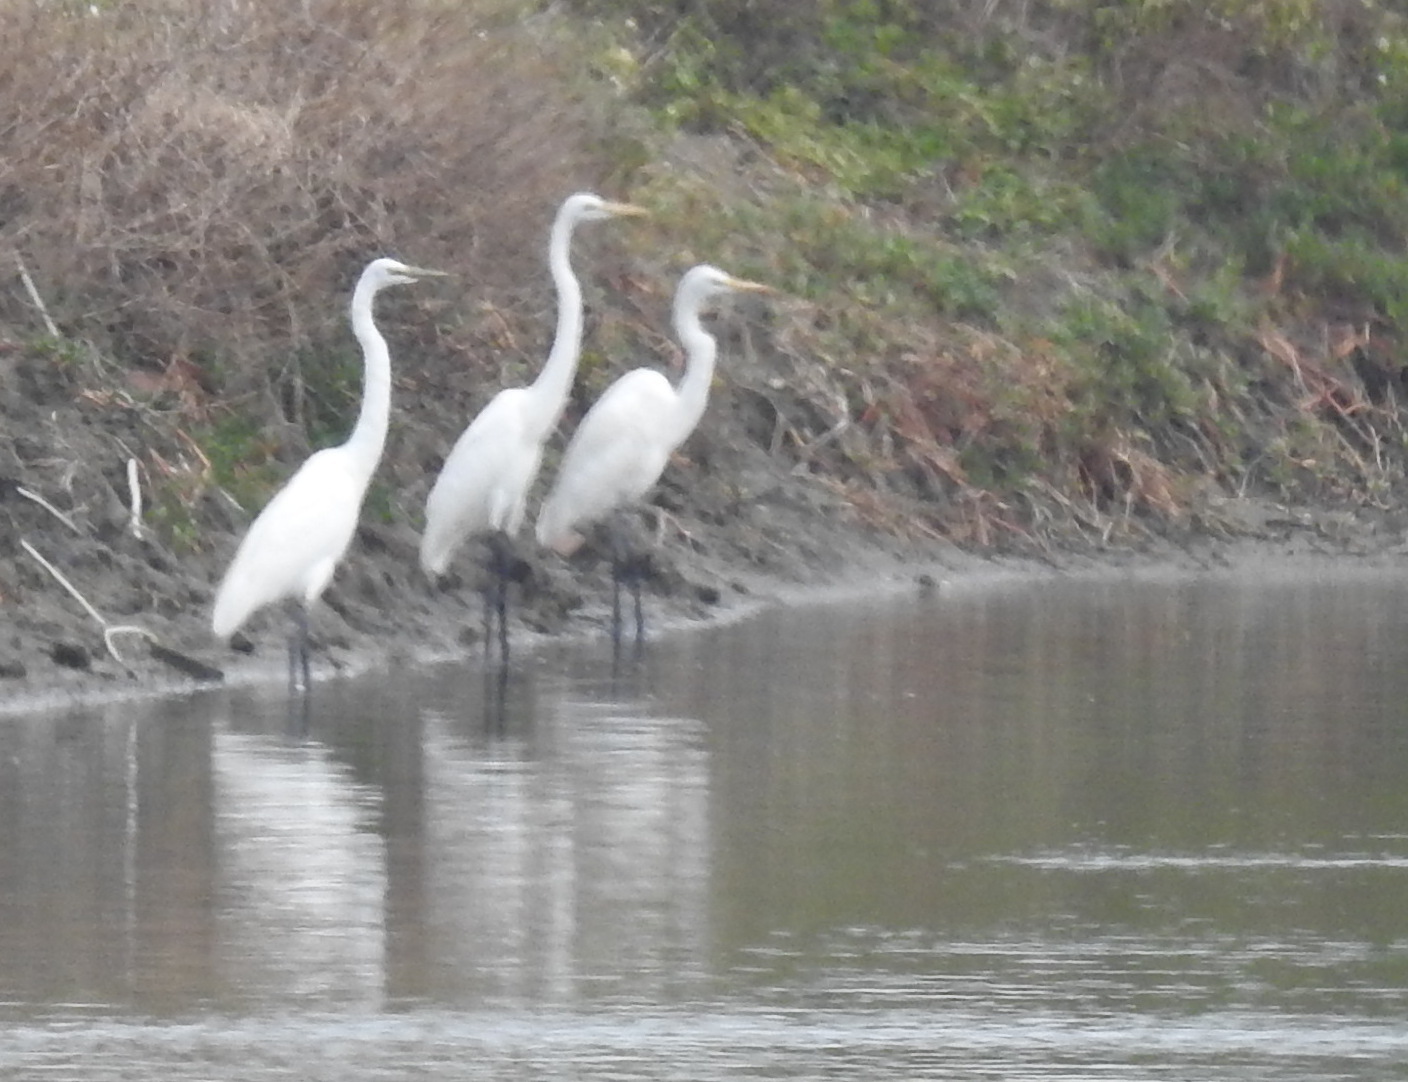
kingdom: Animalia
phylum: Chordata
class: Aves
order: Pelecaniformes
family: Ardeidae
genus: Ardea
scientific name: Ardea alba
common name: Great egret
